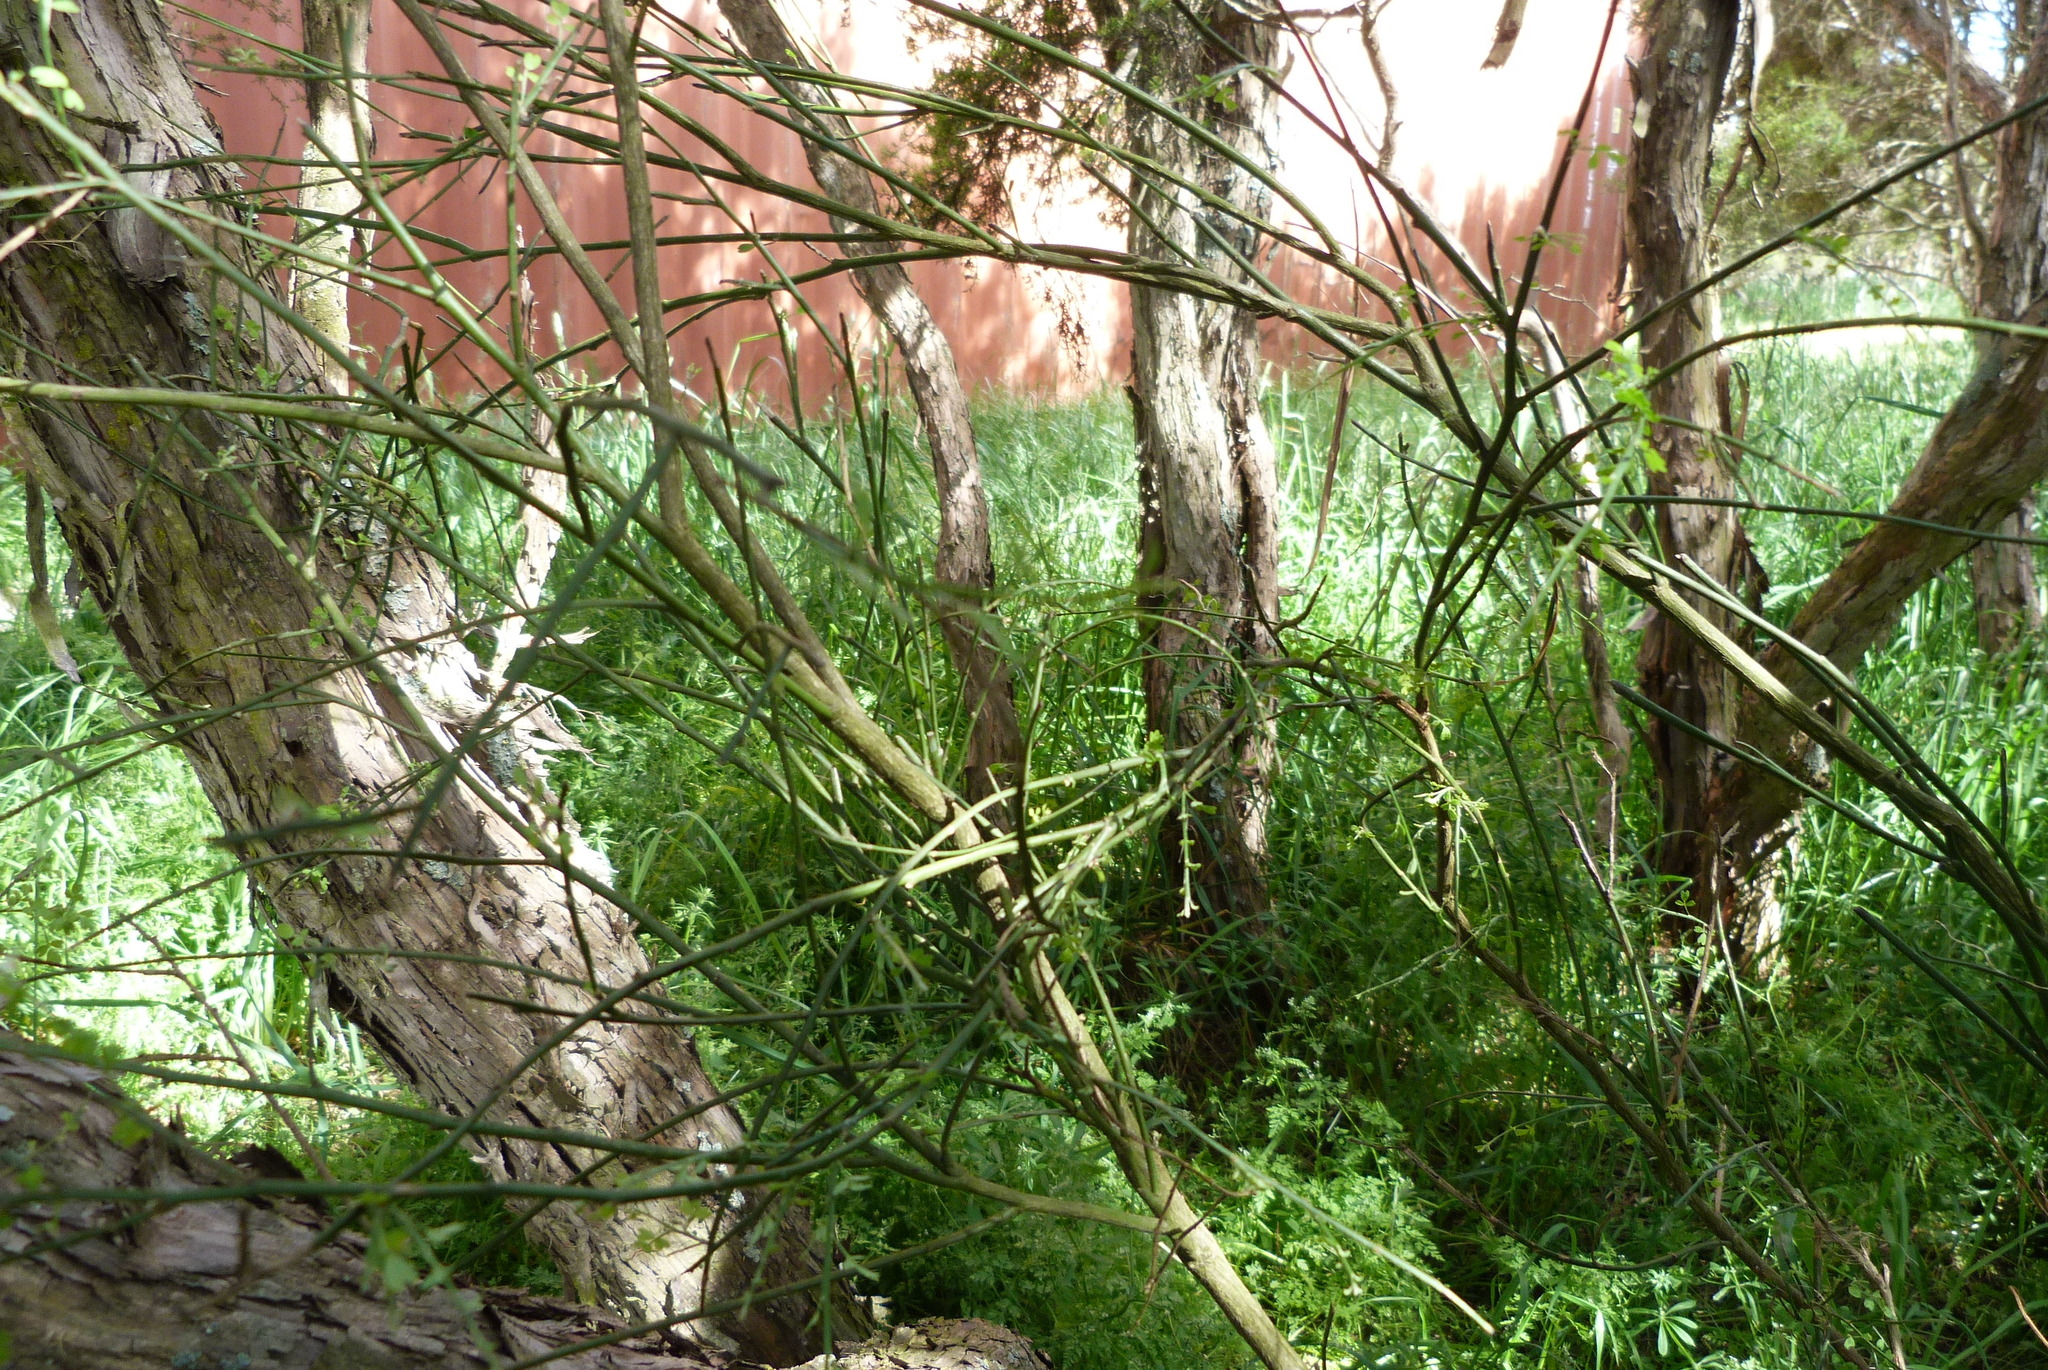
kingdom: Plantae
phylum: Tracheophyta
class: Magnoliopsida
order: Fabales
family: Fabaceae
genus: Carmichaelia
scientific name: Carmichaelia australis
